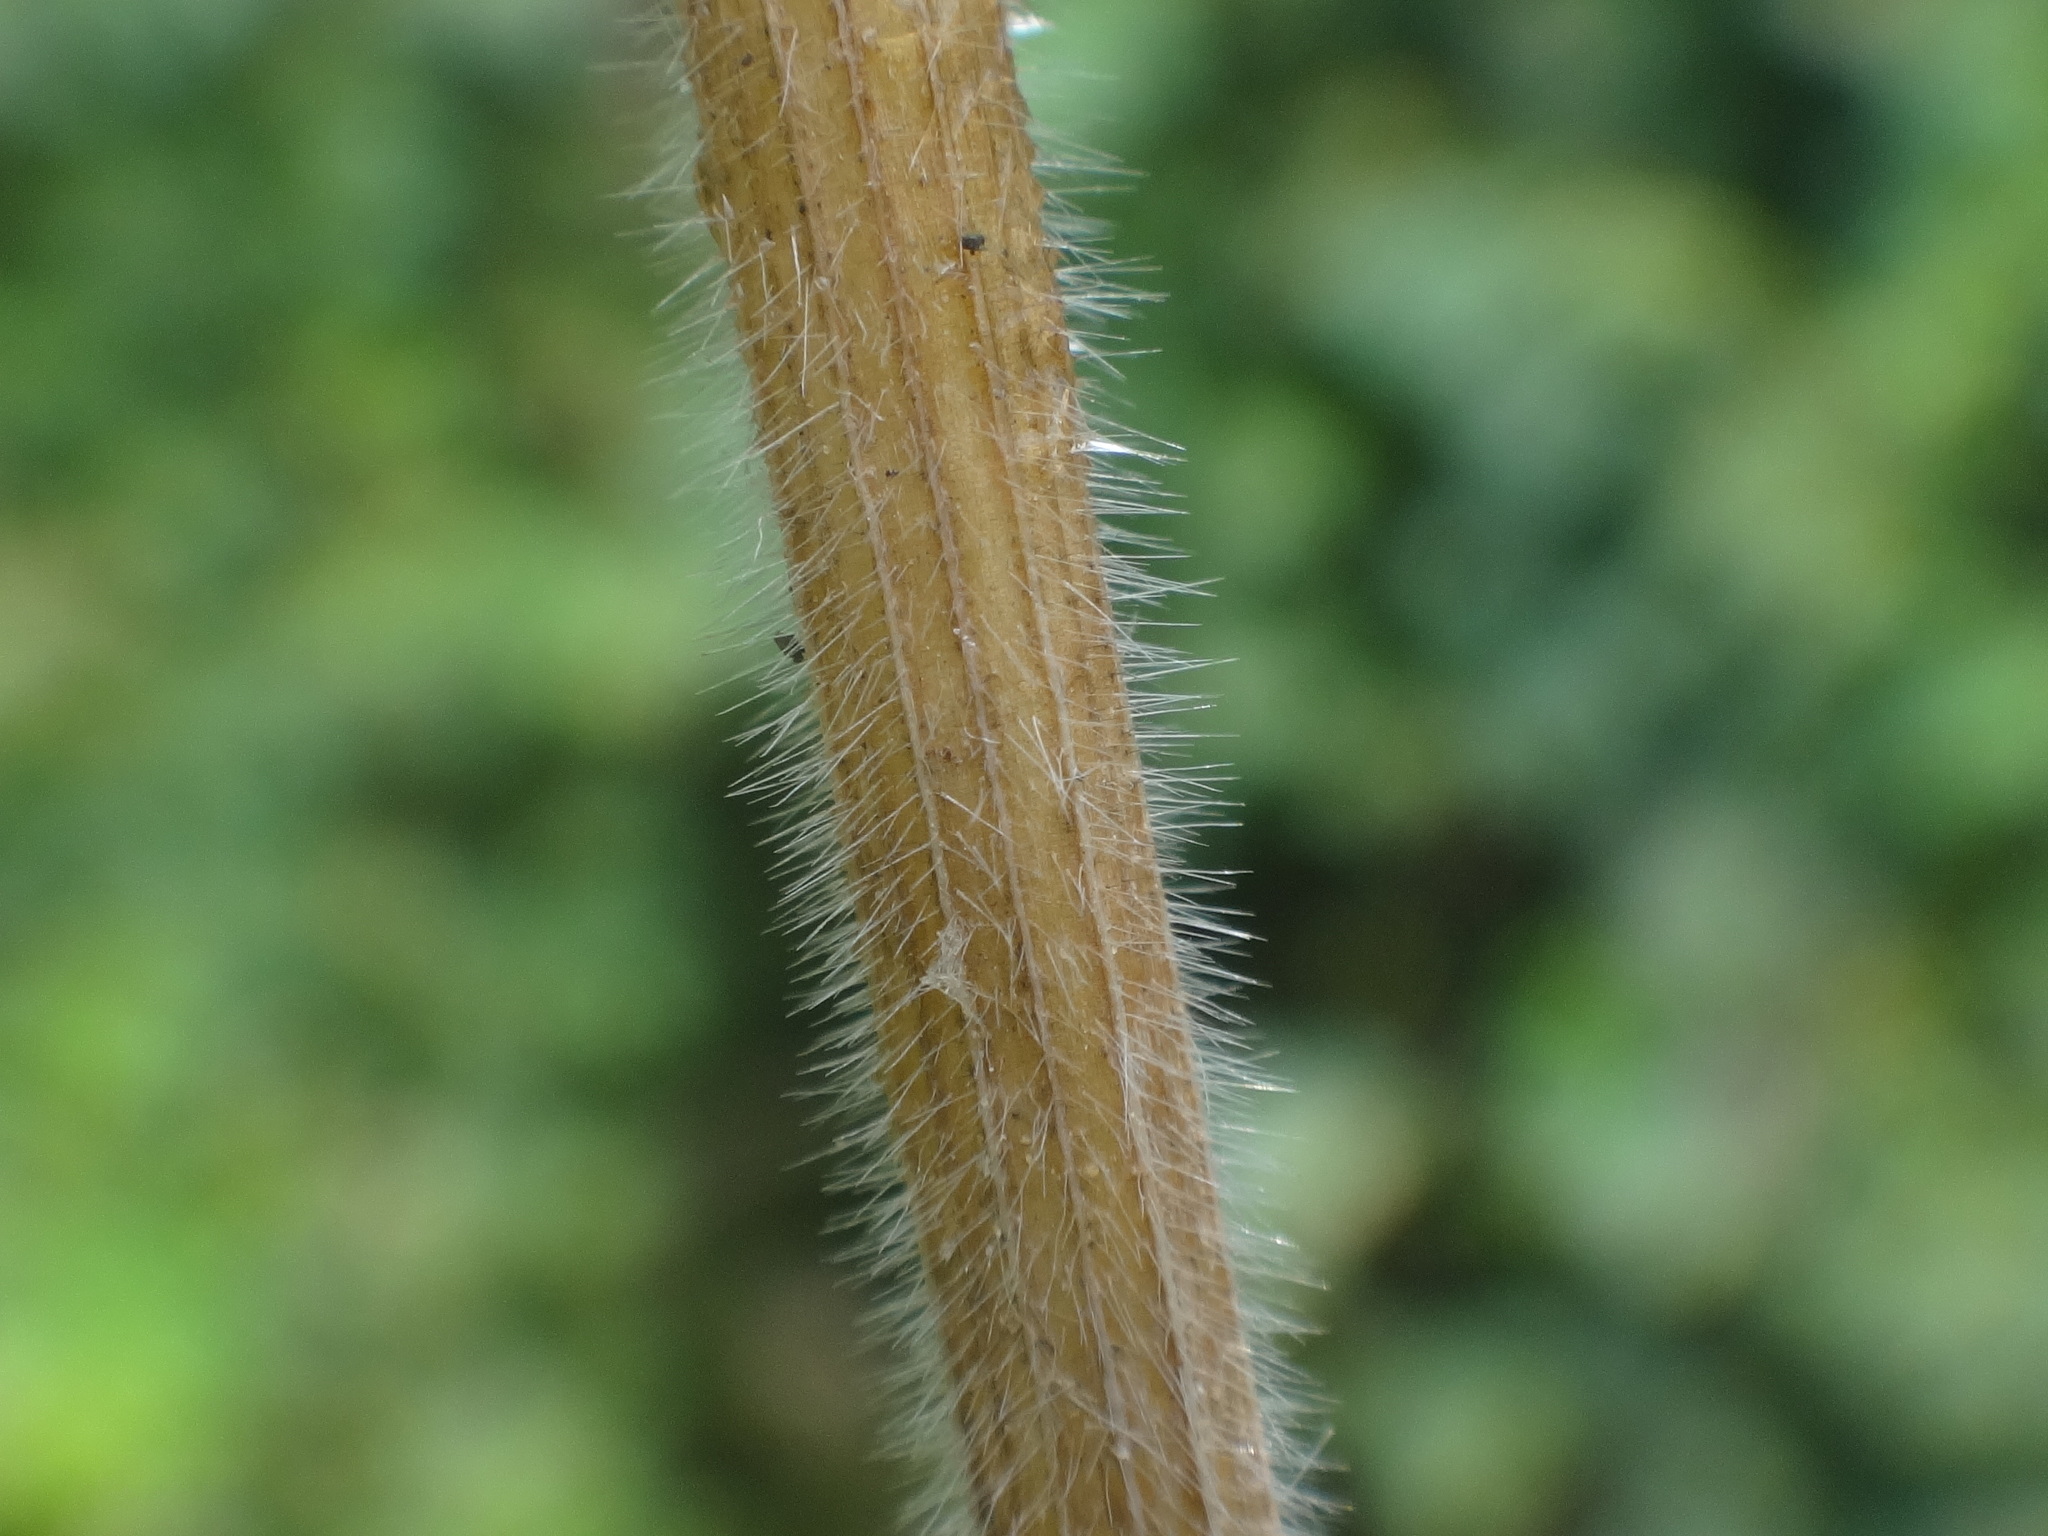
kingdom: Plantae
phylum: Tracheophyta
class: Liliopsida
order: Poales
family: Poaceae
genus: Bromus
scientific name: Bromus commutatus
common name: Meadow brome
